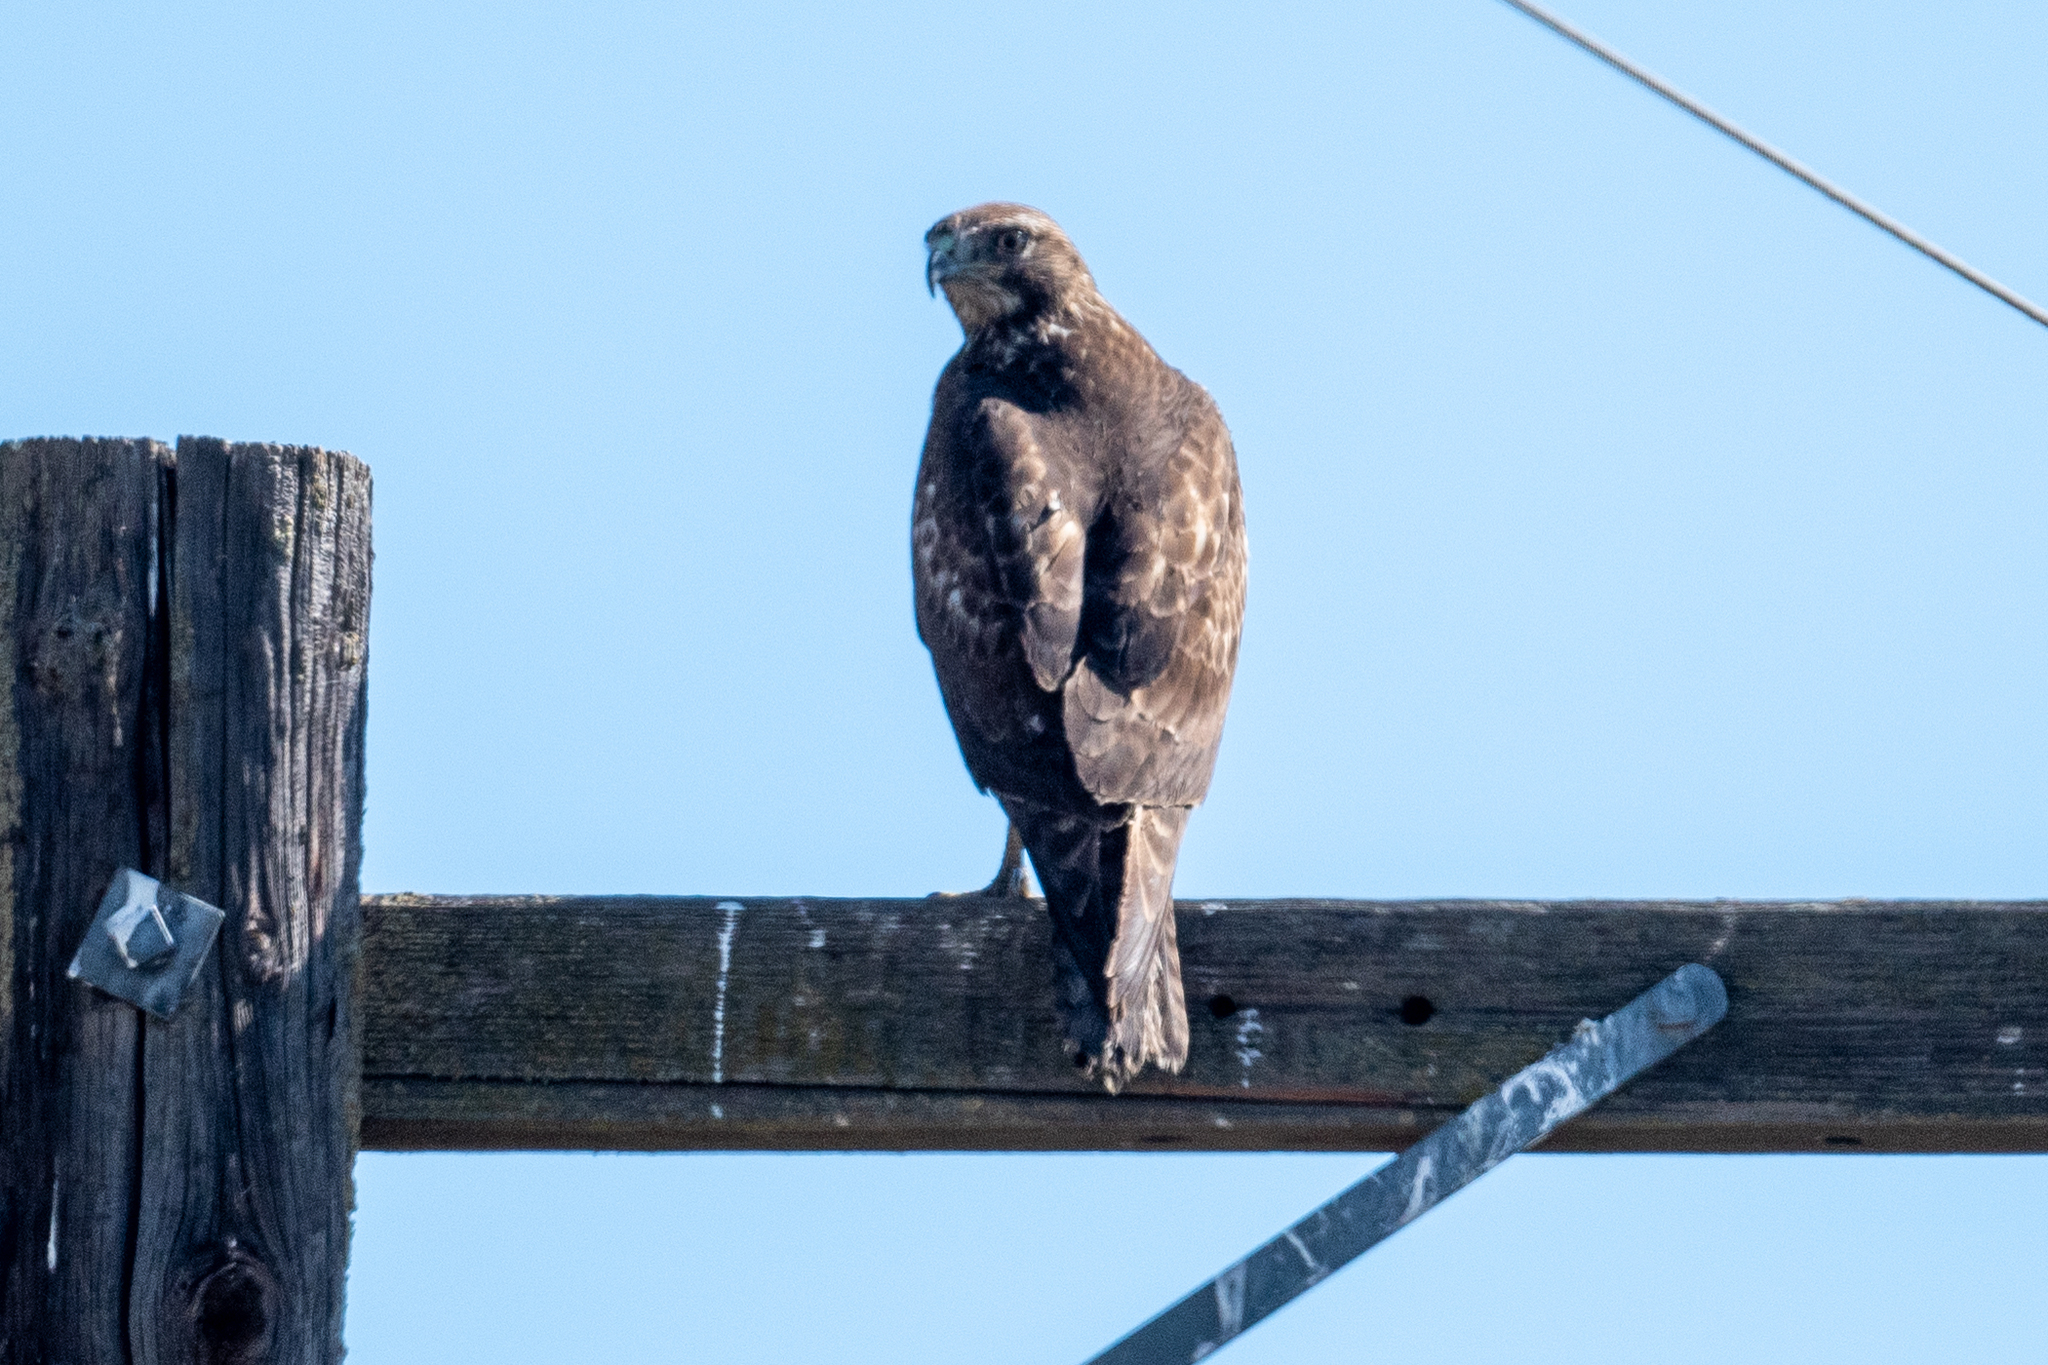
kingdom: Animalia
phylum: Chordata
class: Aves
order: Accipitriformes
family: Accipitridae
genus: Buteo
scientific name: Buteo jamaicensis
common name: Red-tailed hawk
